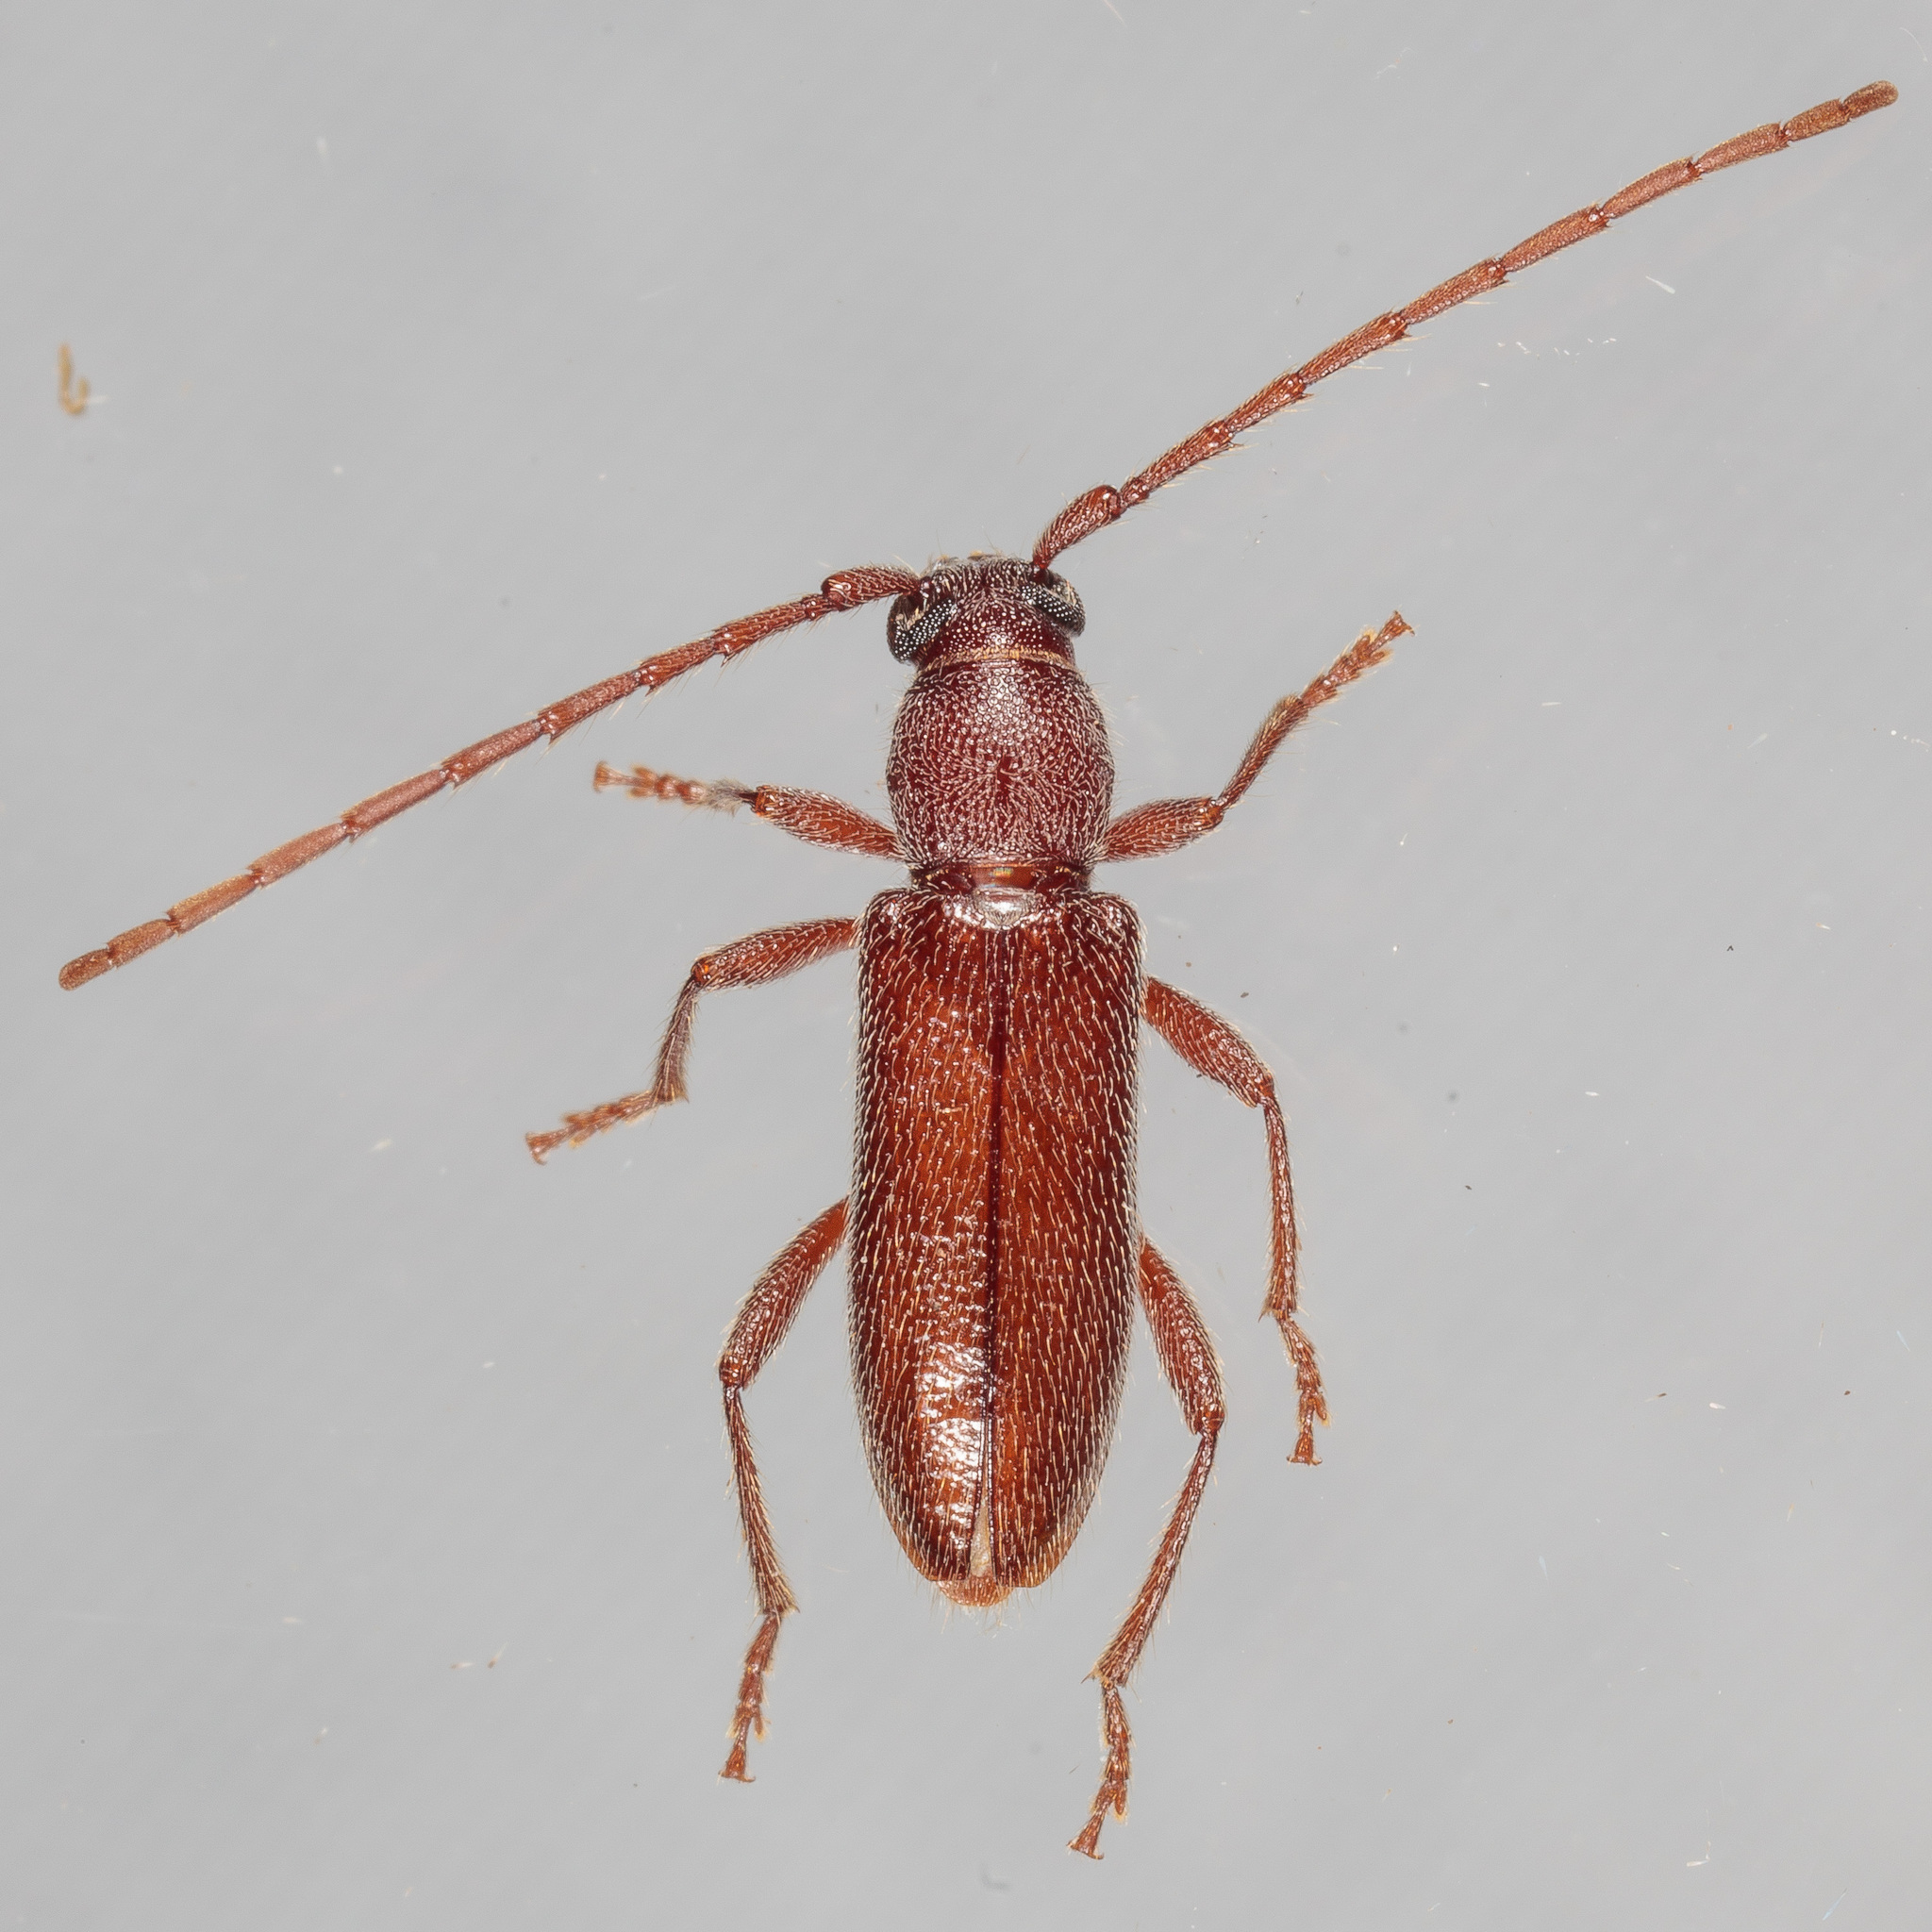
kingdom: Animalia
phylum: Arthropoda
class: Insecta
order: Coleoptera
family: Cerambycidae
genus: Anelaphus
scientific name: Anelaphus moestus
